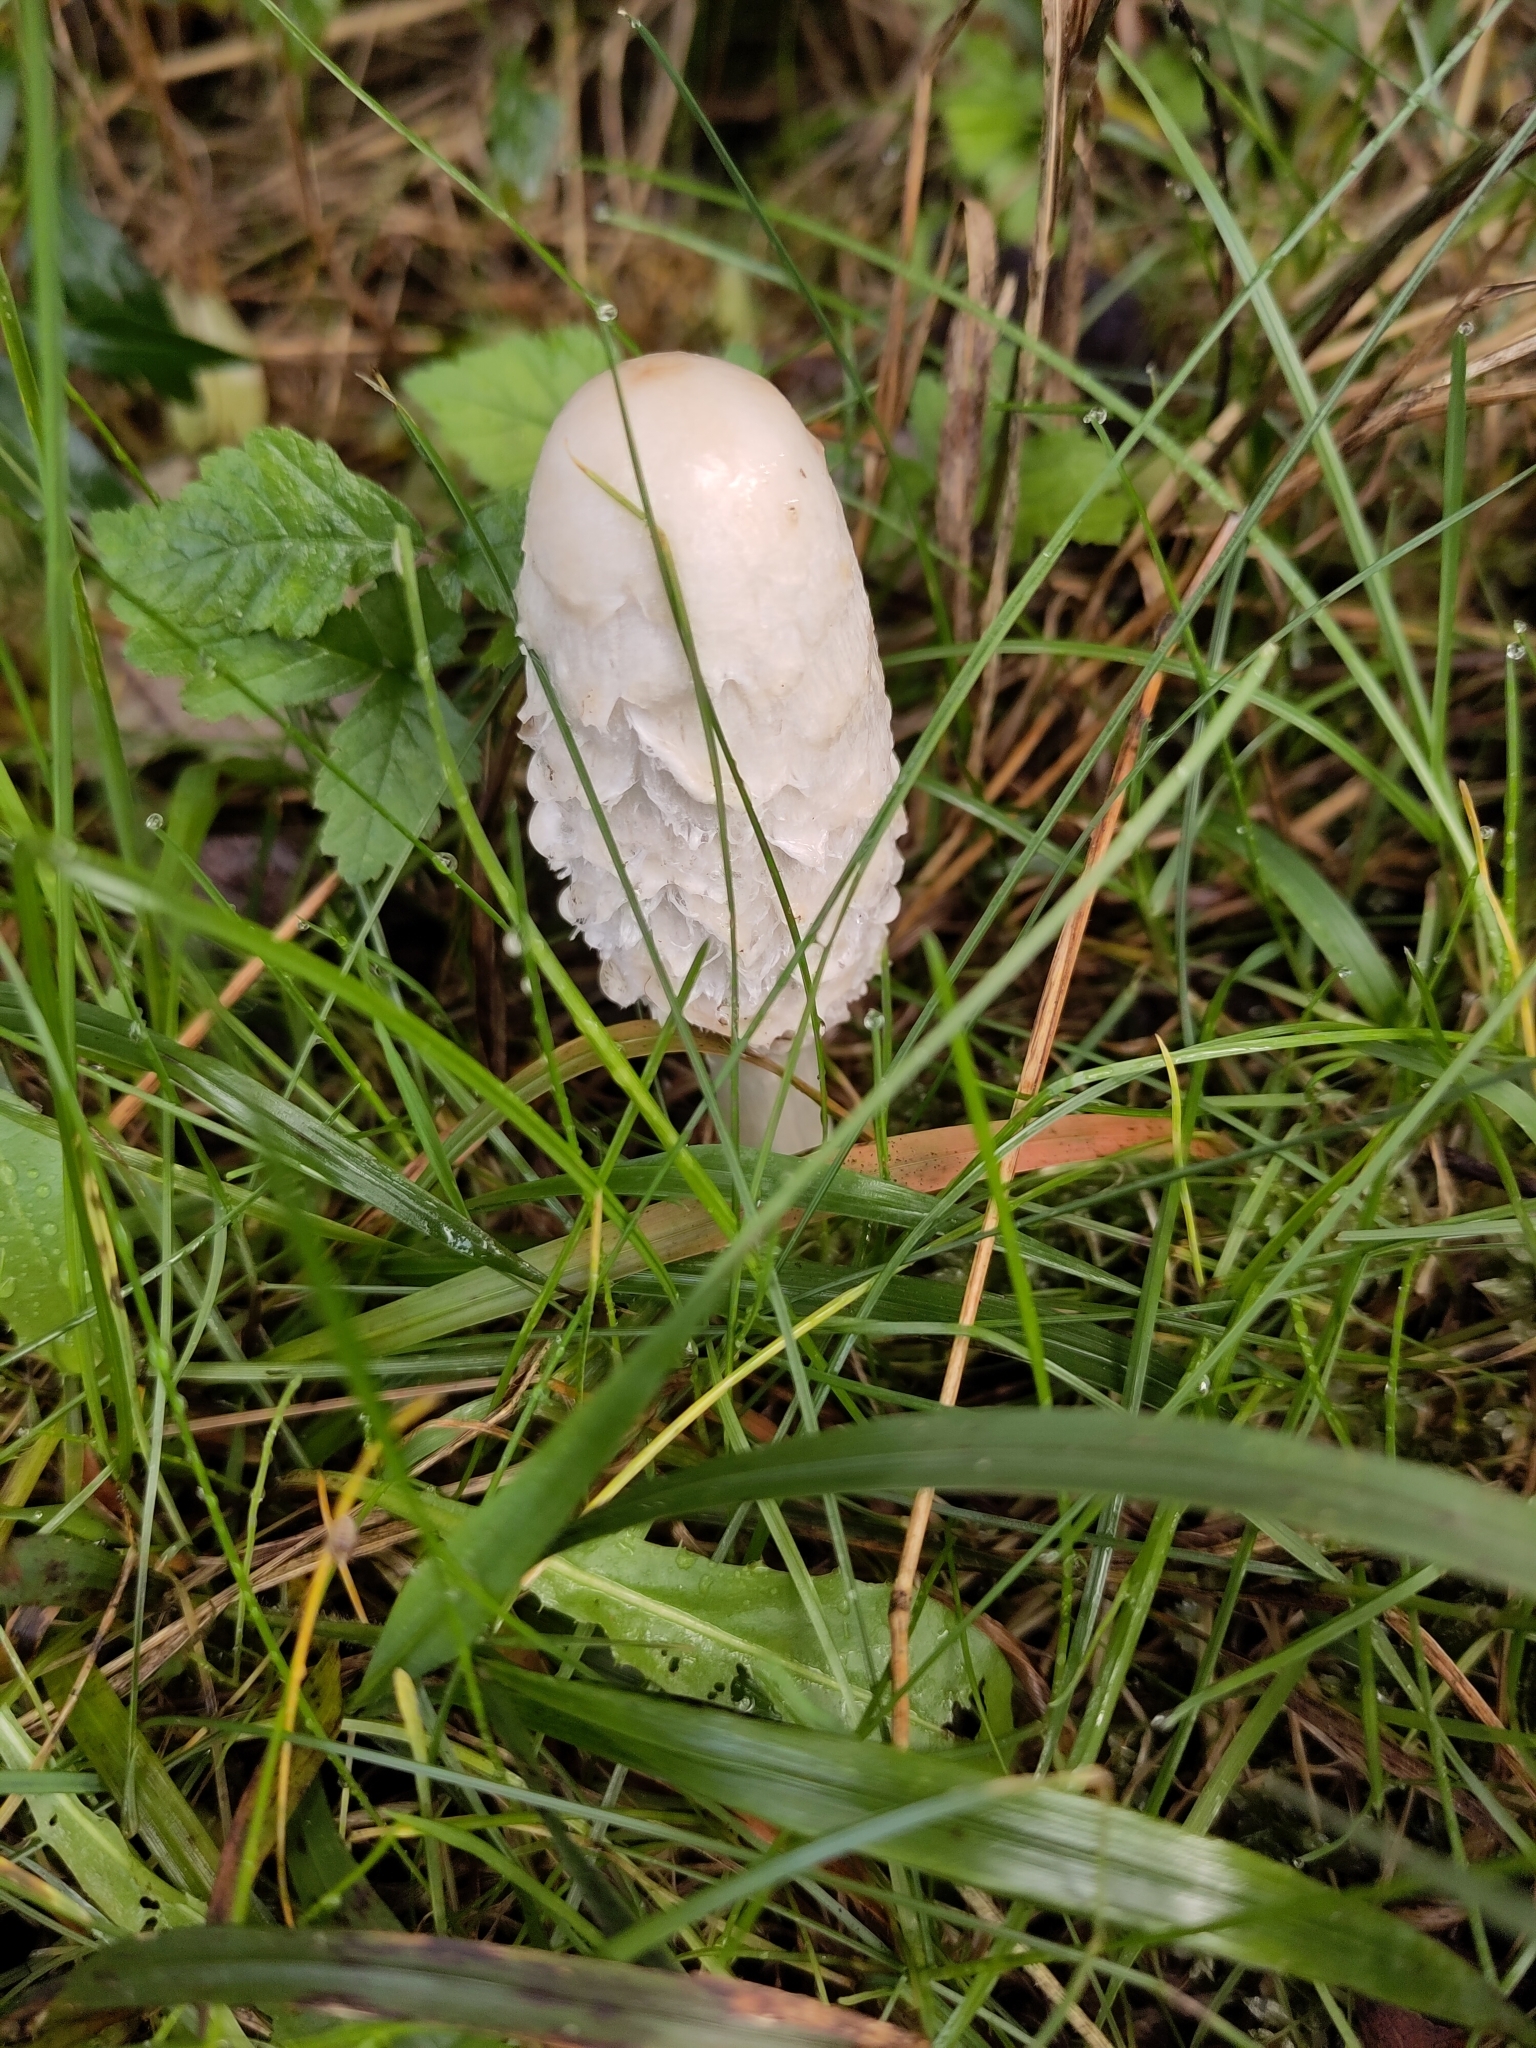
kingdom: Fungi
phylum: Basidiomycota
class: Agaricomycetes
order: Agaricales
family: Agaricaceae
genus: Coprinus
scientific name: Coprinus comatus
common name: Lawyer's wig
